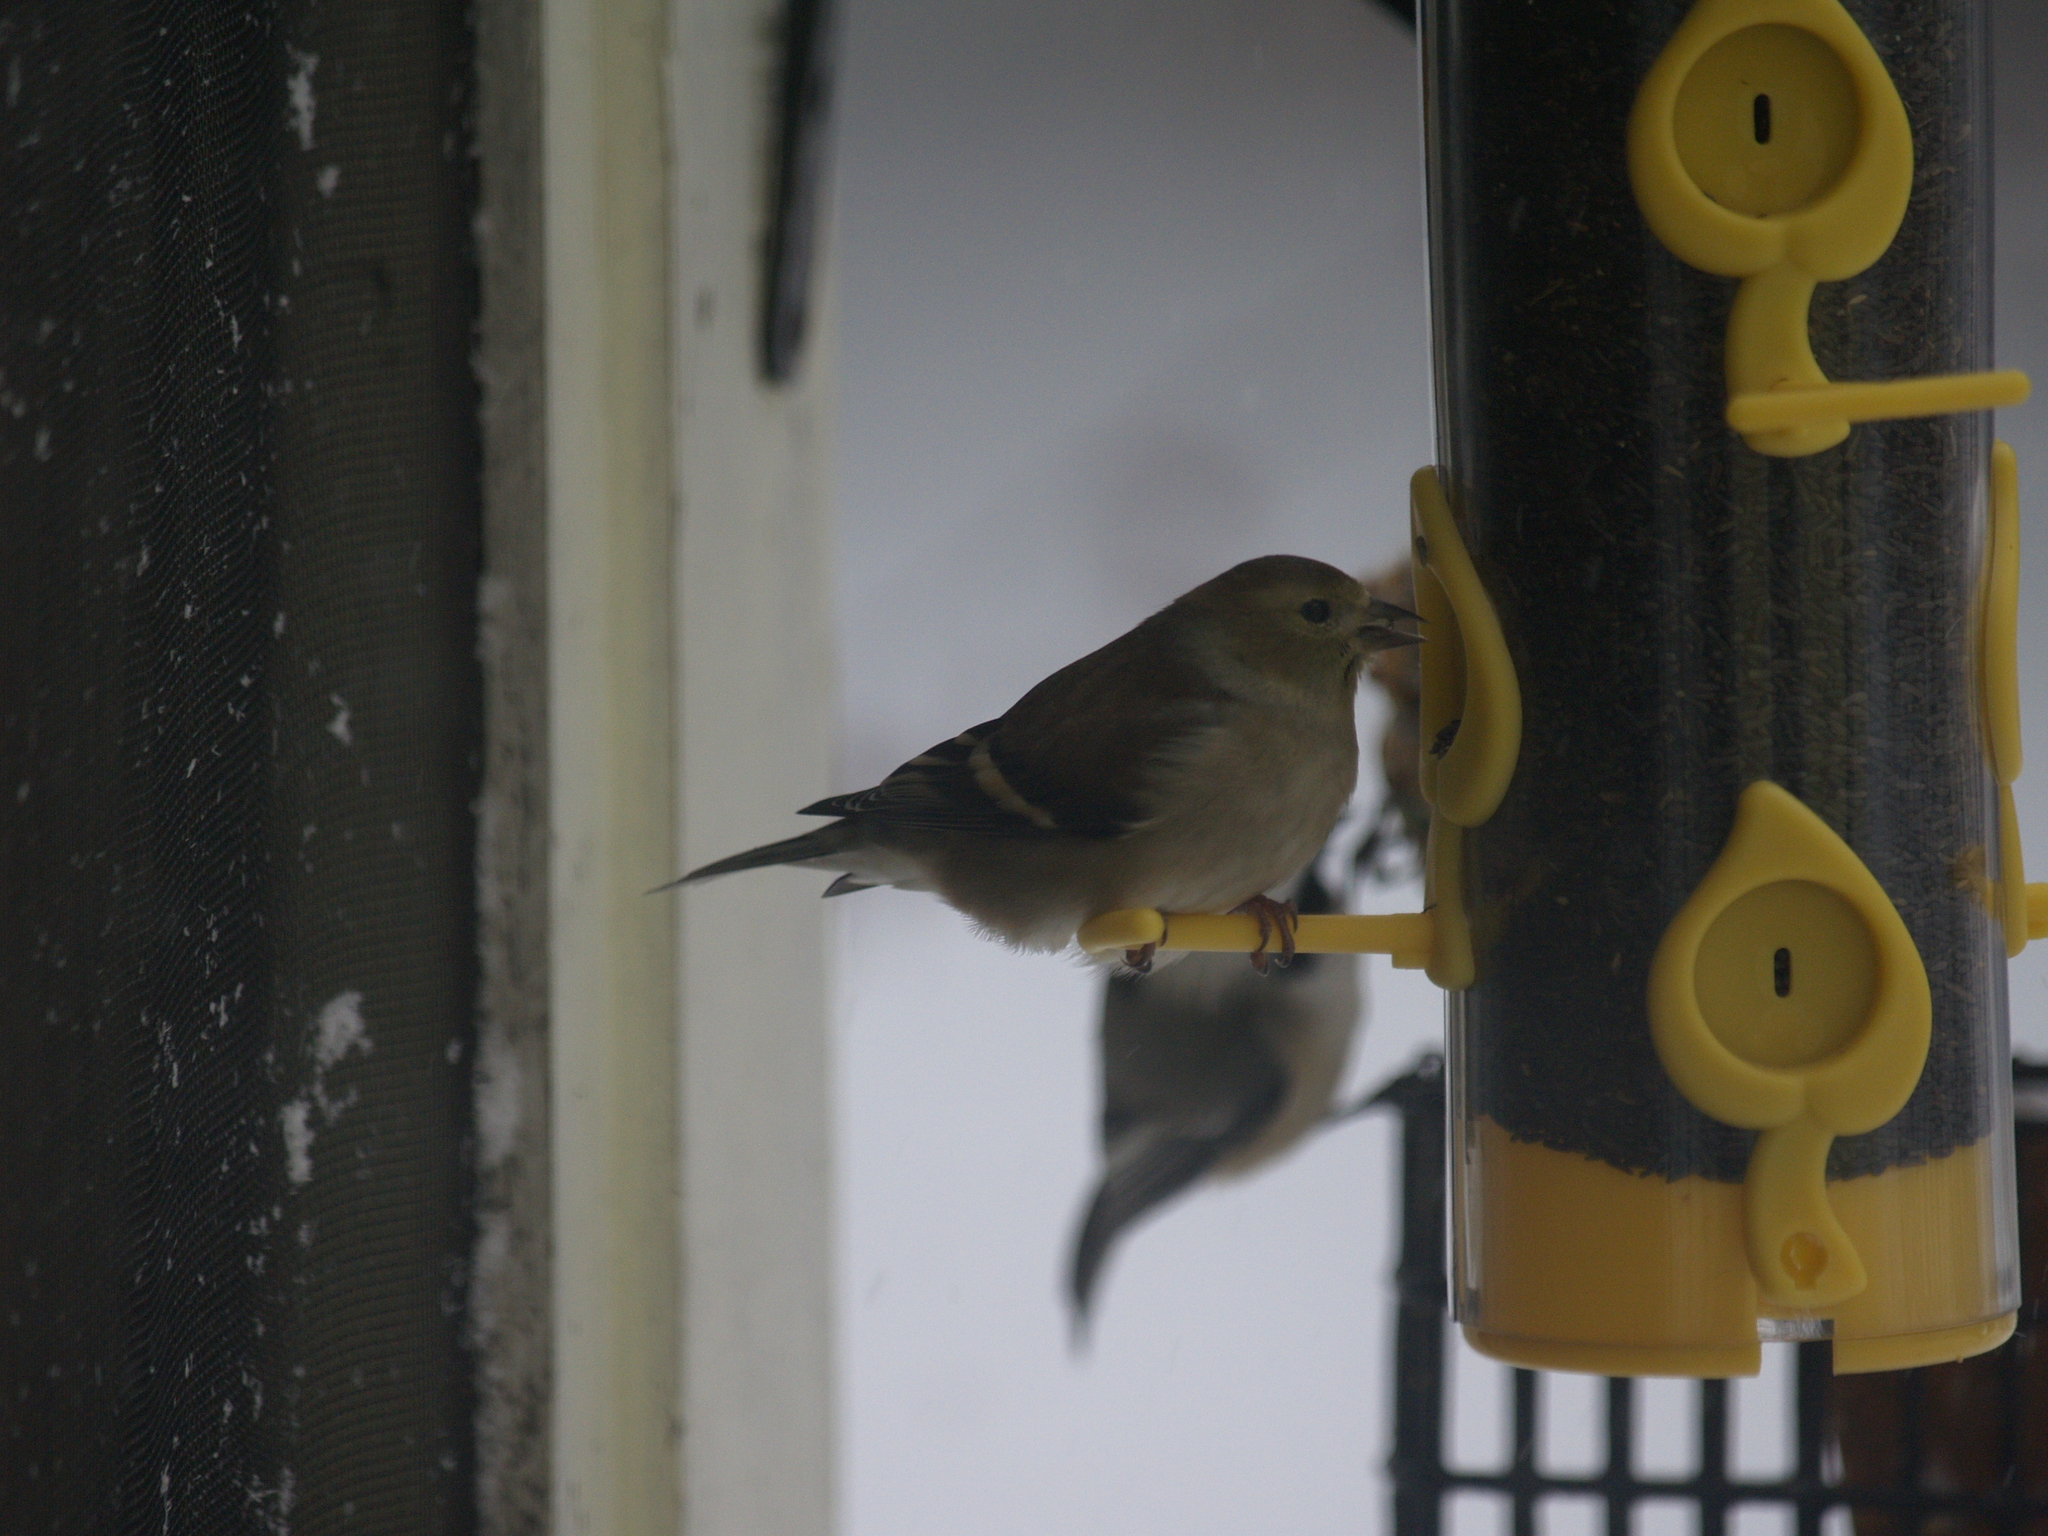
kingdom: Animalia
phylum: Chordata
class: Aves
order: Passeriformes
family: Fringillidae
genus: Spinus
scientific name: Spinus tristis
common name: American goldfinch
